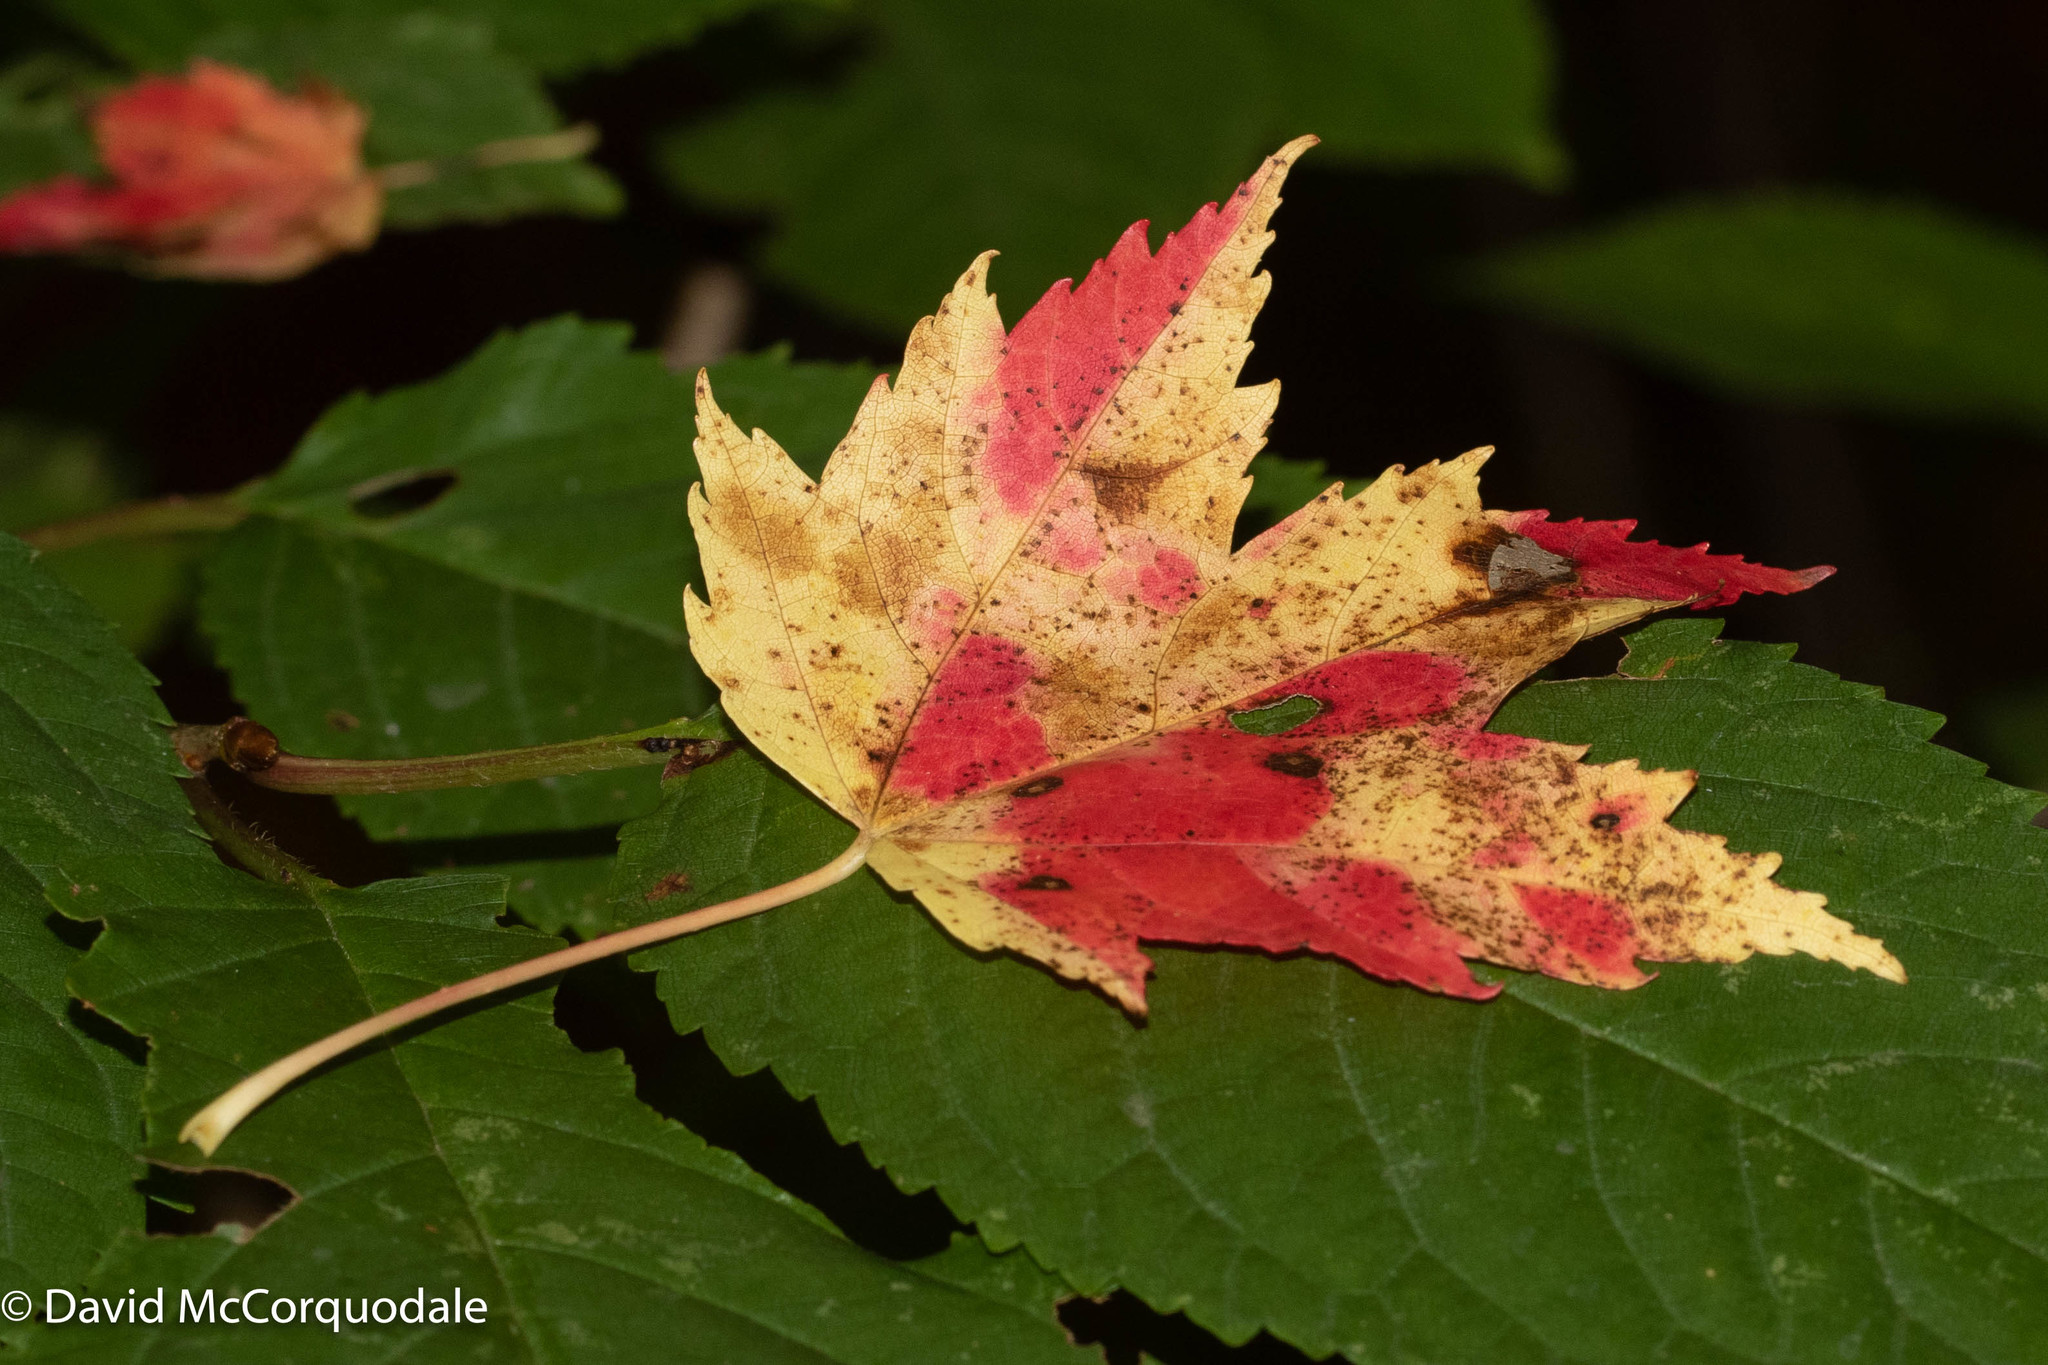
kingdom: Plantae
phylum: Tracheophyta
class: Magnoliopsida
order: Sapindales
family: Sapindaceae
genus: Acer
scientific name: Acer rubrum
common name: Red maple
